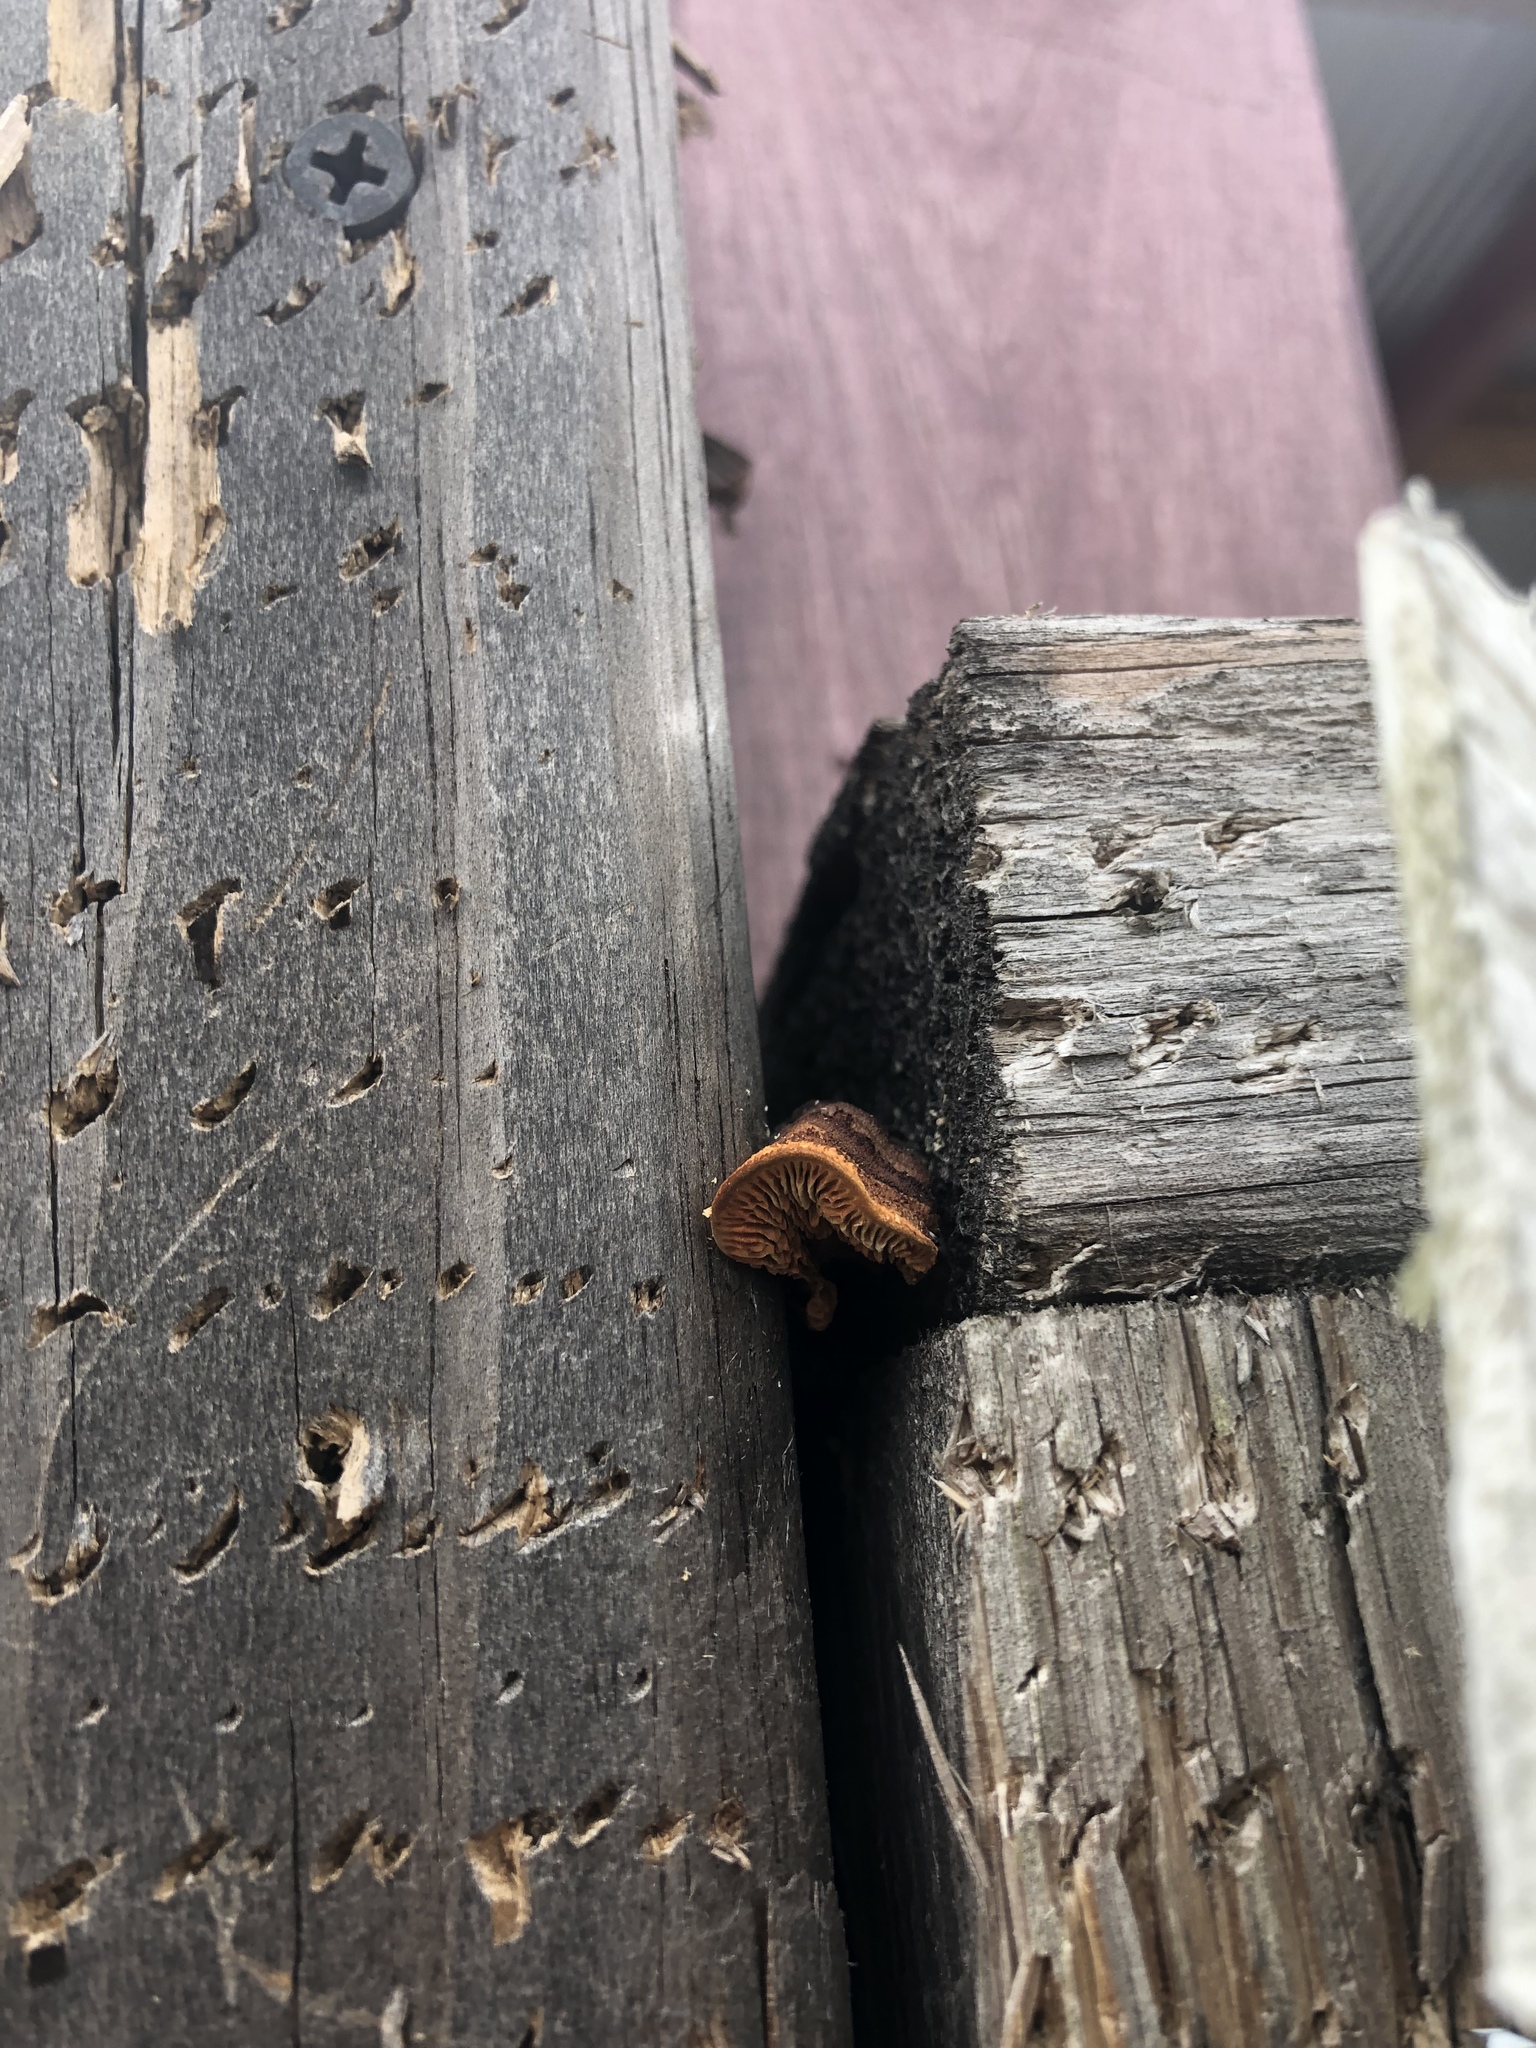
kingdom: Fungi
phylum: Basidiomycota
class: Agaricomycetes
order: Gloeophyllales
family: Gloeophyllaceae
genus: Gloeophyllum
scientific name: Gloeophyllum sepiarium
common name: Conifer mazegill
